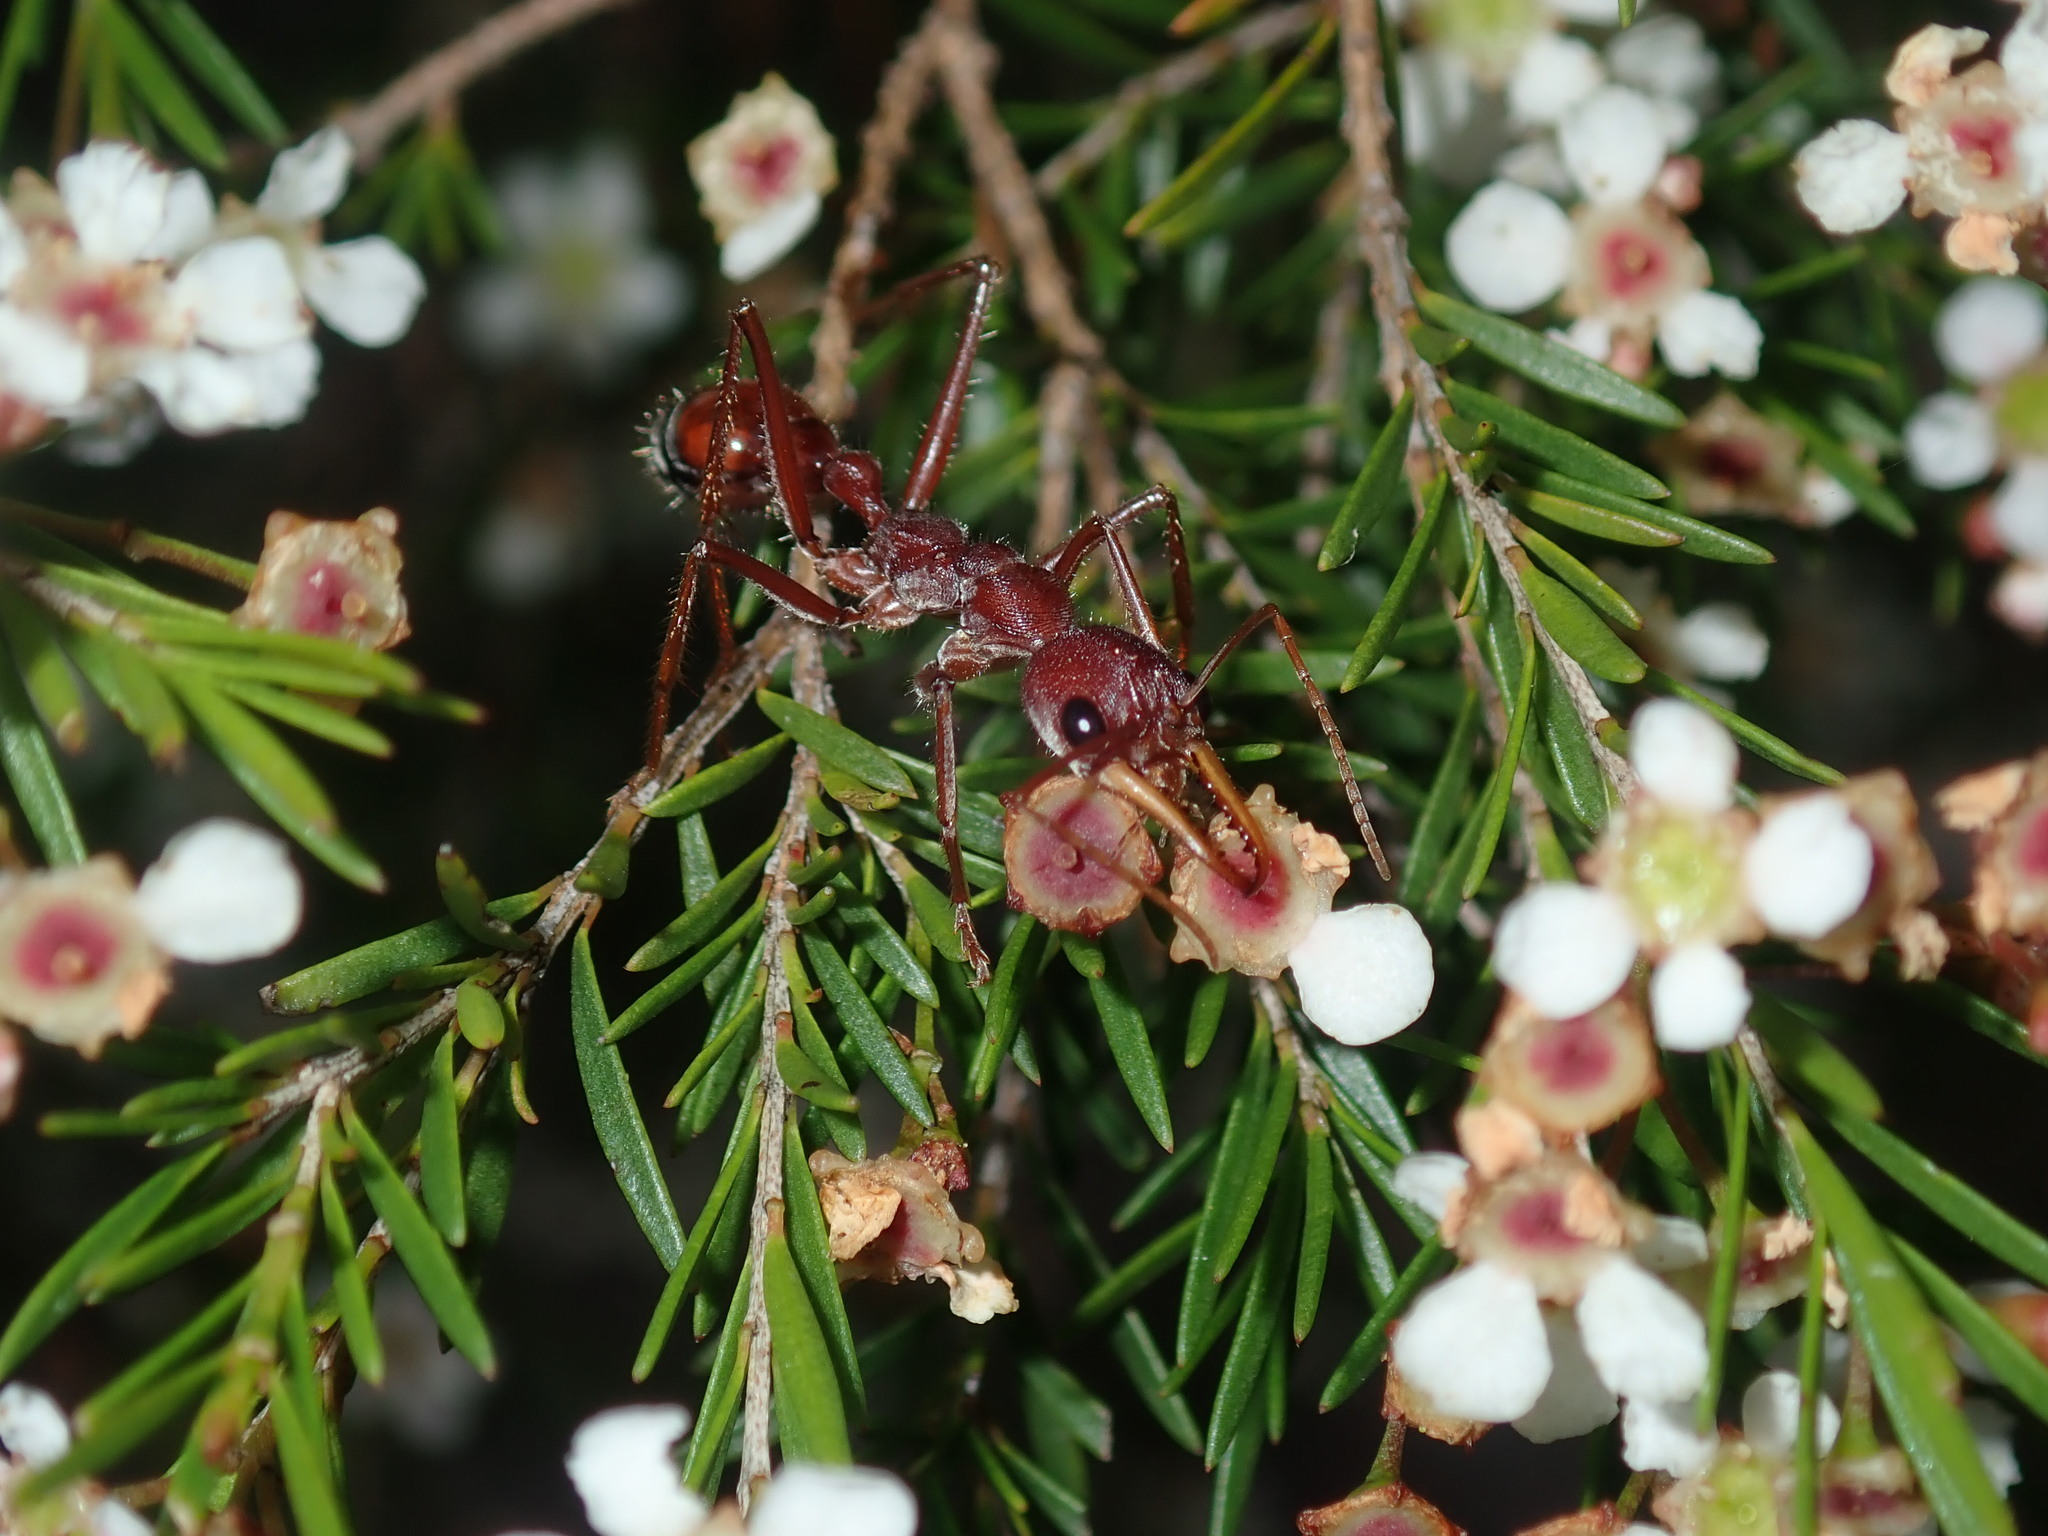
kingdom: Animalia
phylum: Arthropoda
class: Insecta
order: Hymenoptera
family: Formicidae
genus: Myrmecia
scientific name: Myrmecia gulosa
